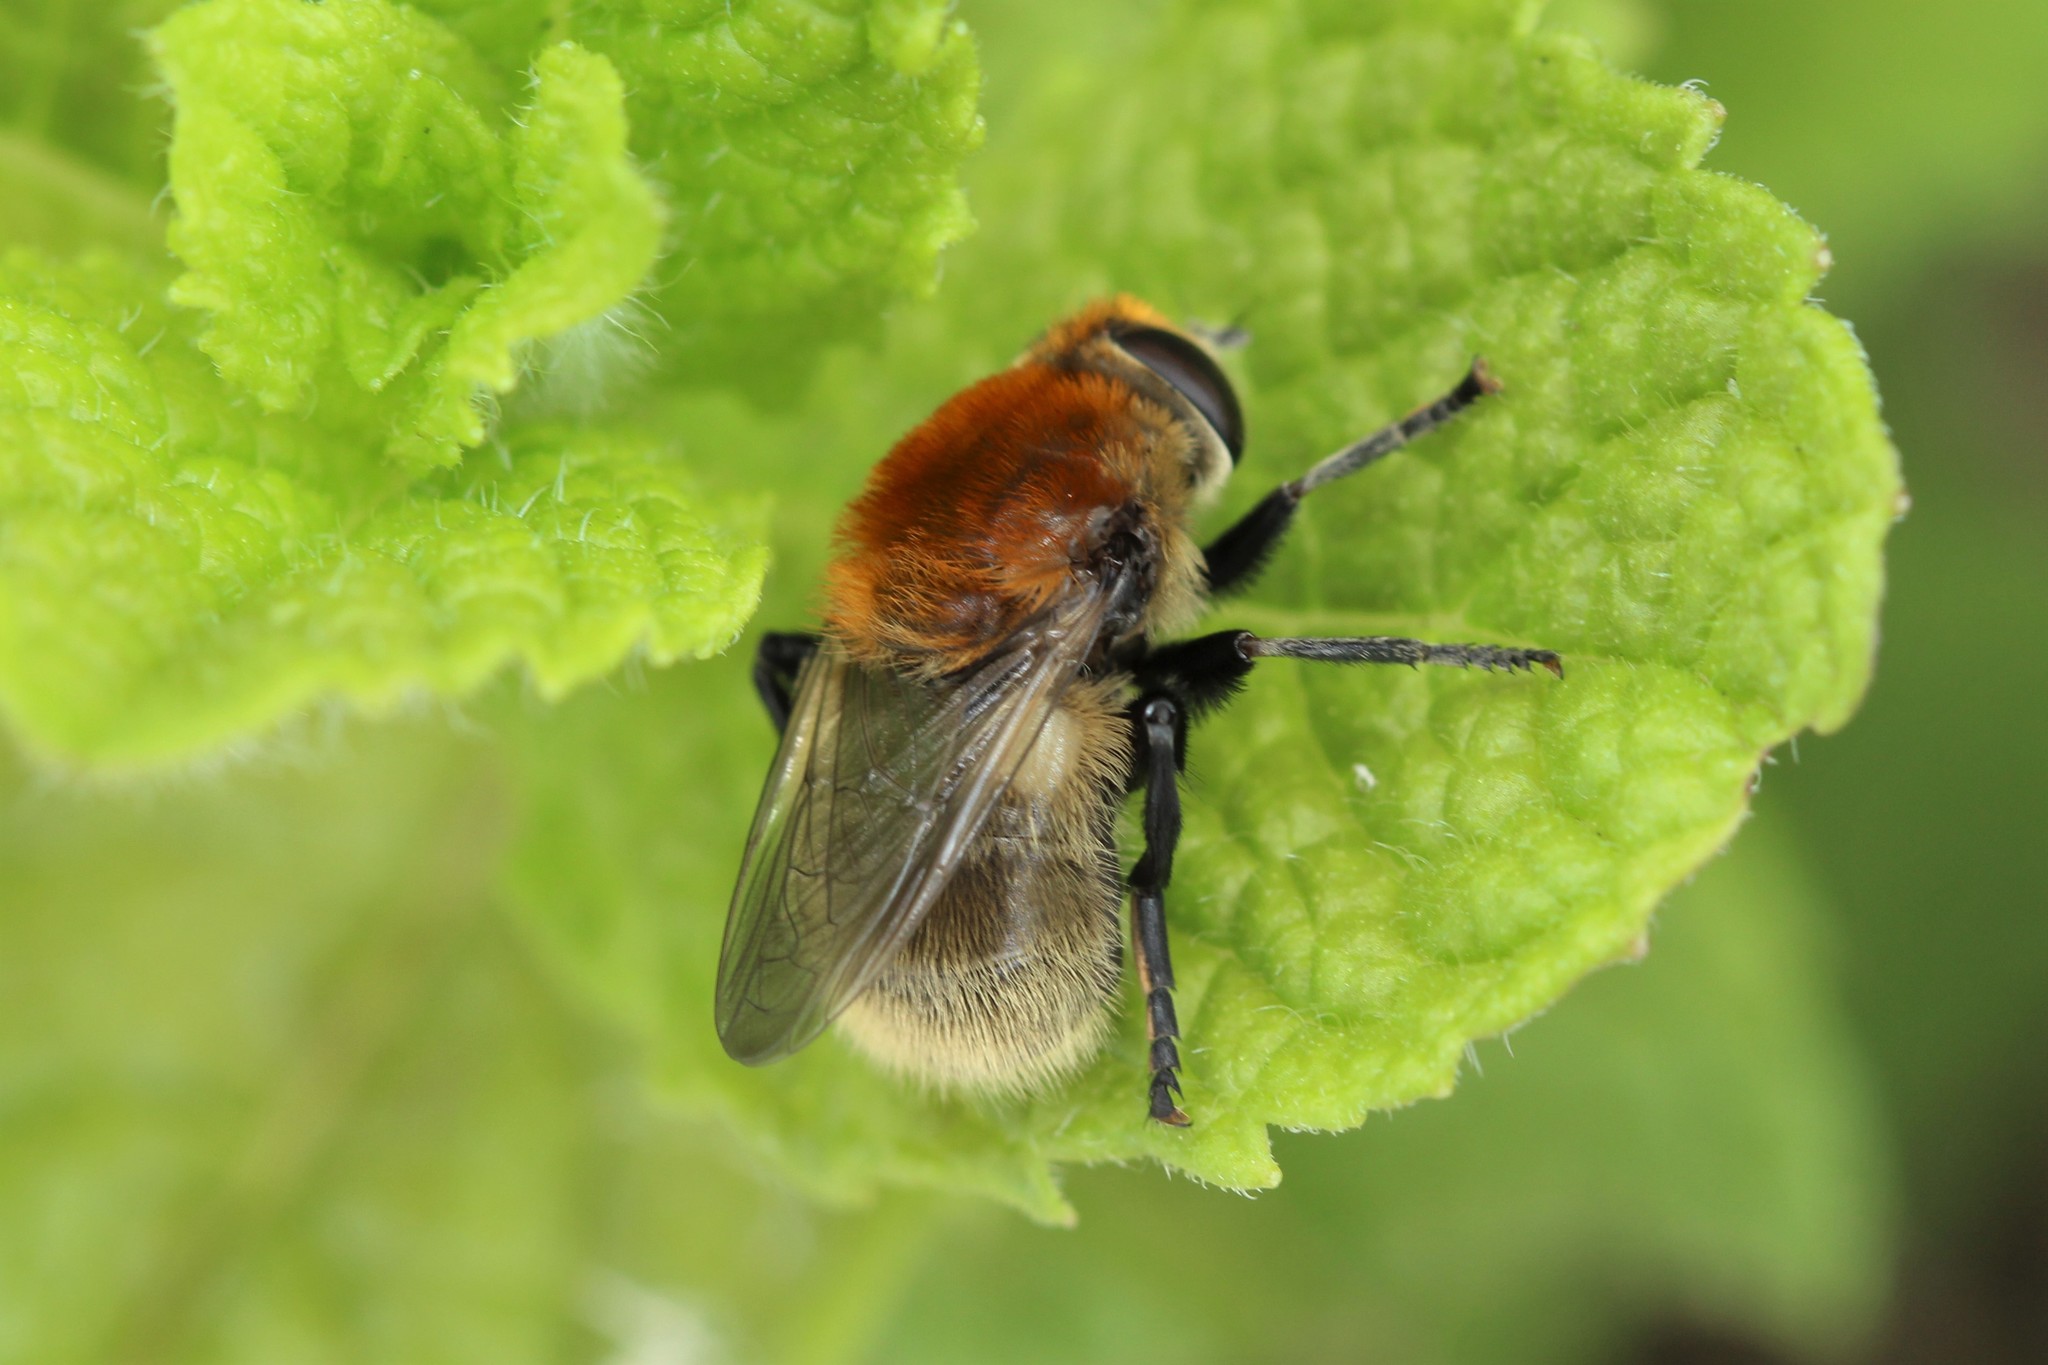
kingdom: Animalia
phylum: Arthropoda
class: Insecta
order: Diptera
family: Syrphidae
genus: Merodon
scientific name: Merodon equestris
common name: Greater bulb-fly
